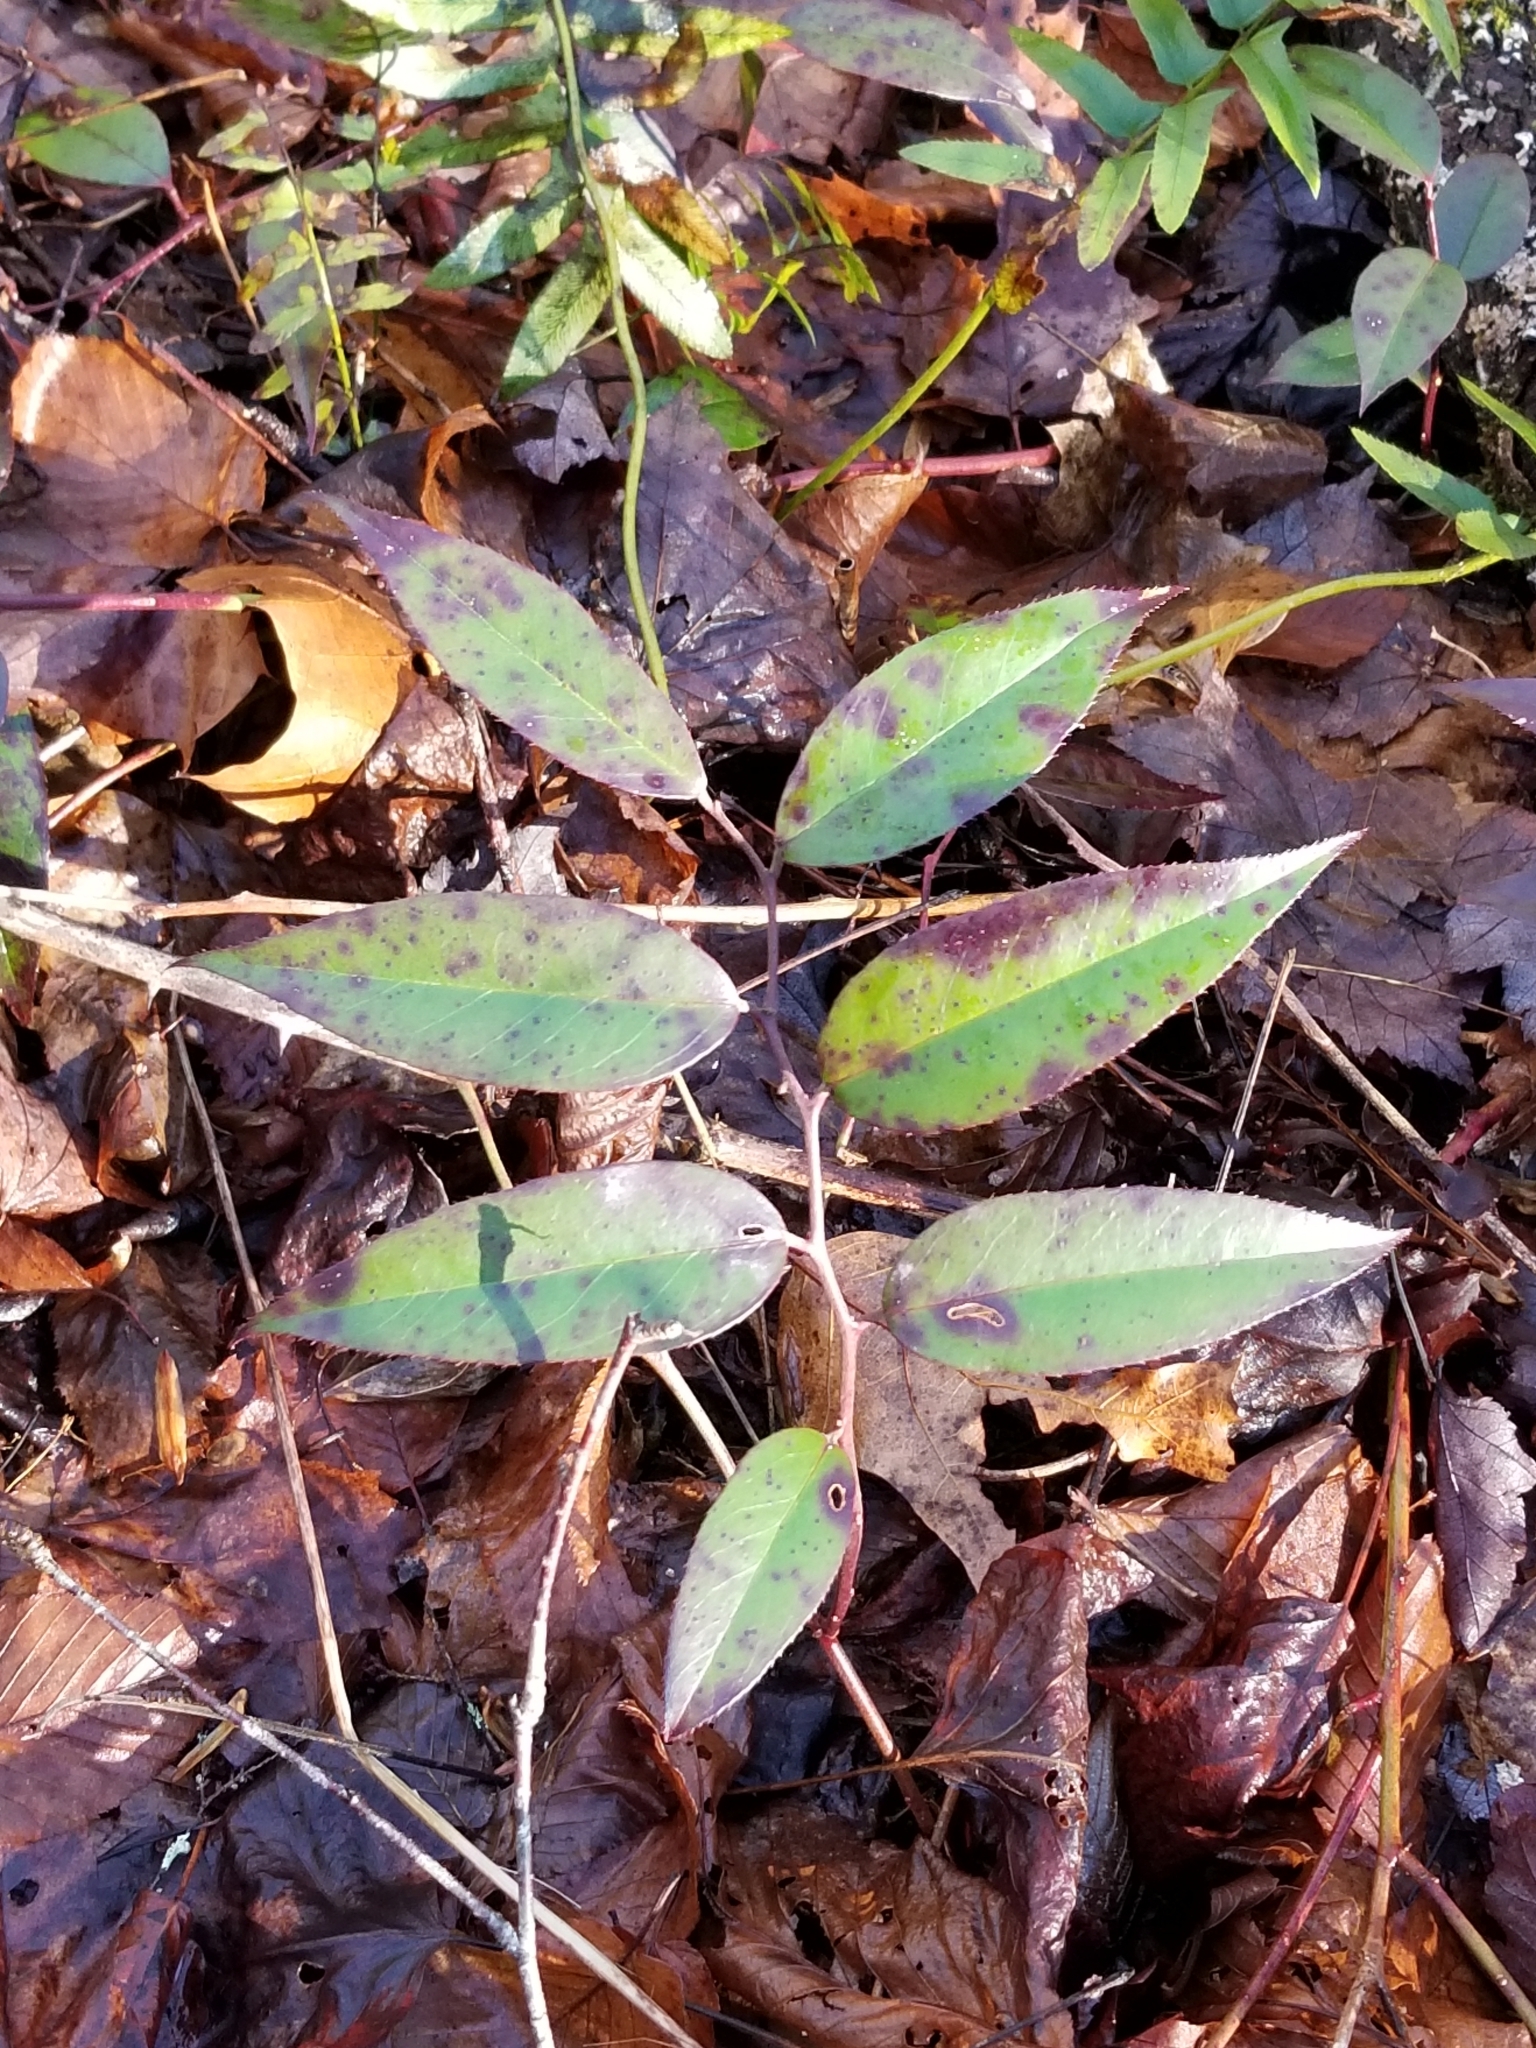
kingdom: Plantae
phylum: Tracheophyta
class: Magnoliopsida
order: Ericales
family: Ericaceae
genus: Leucothoe
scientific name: Leucothoe fontanesiana
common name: Fetterbush
